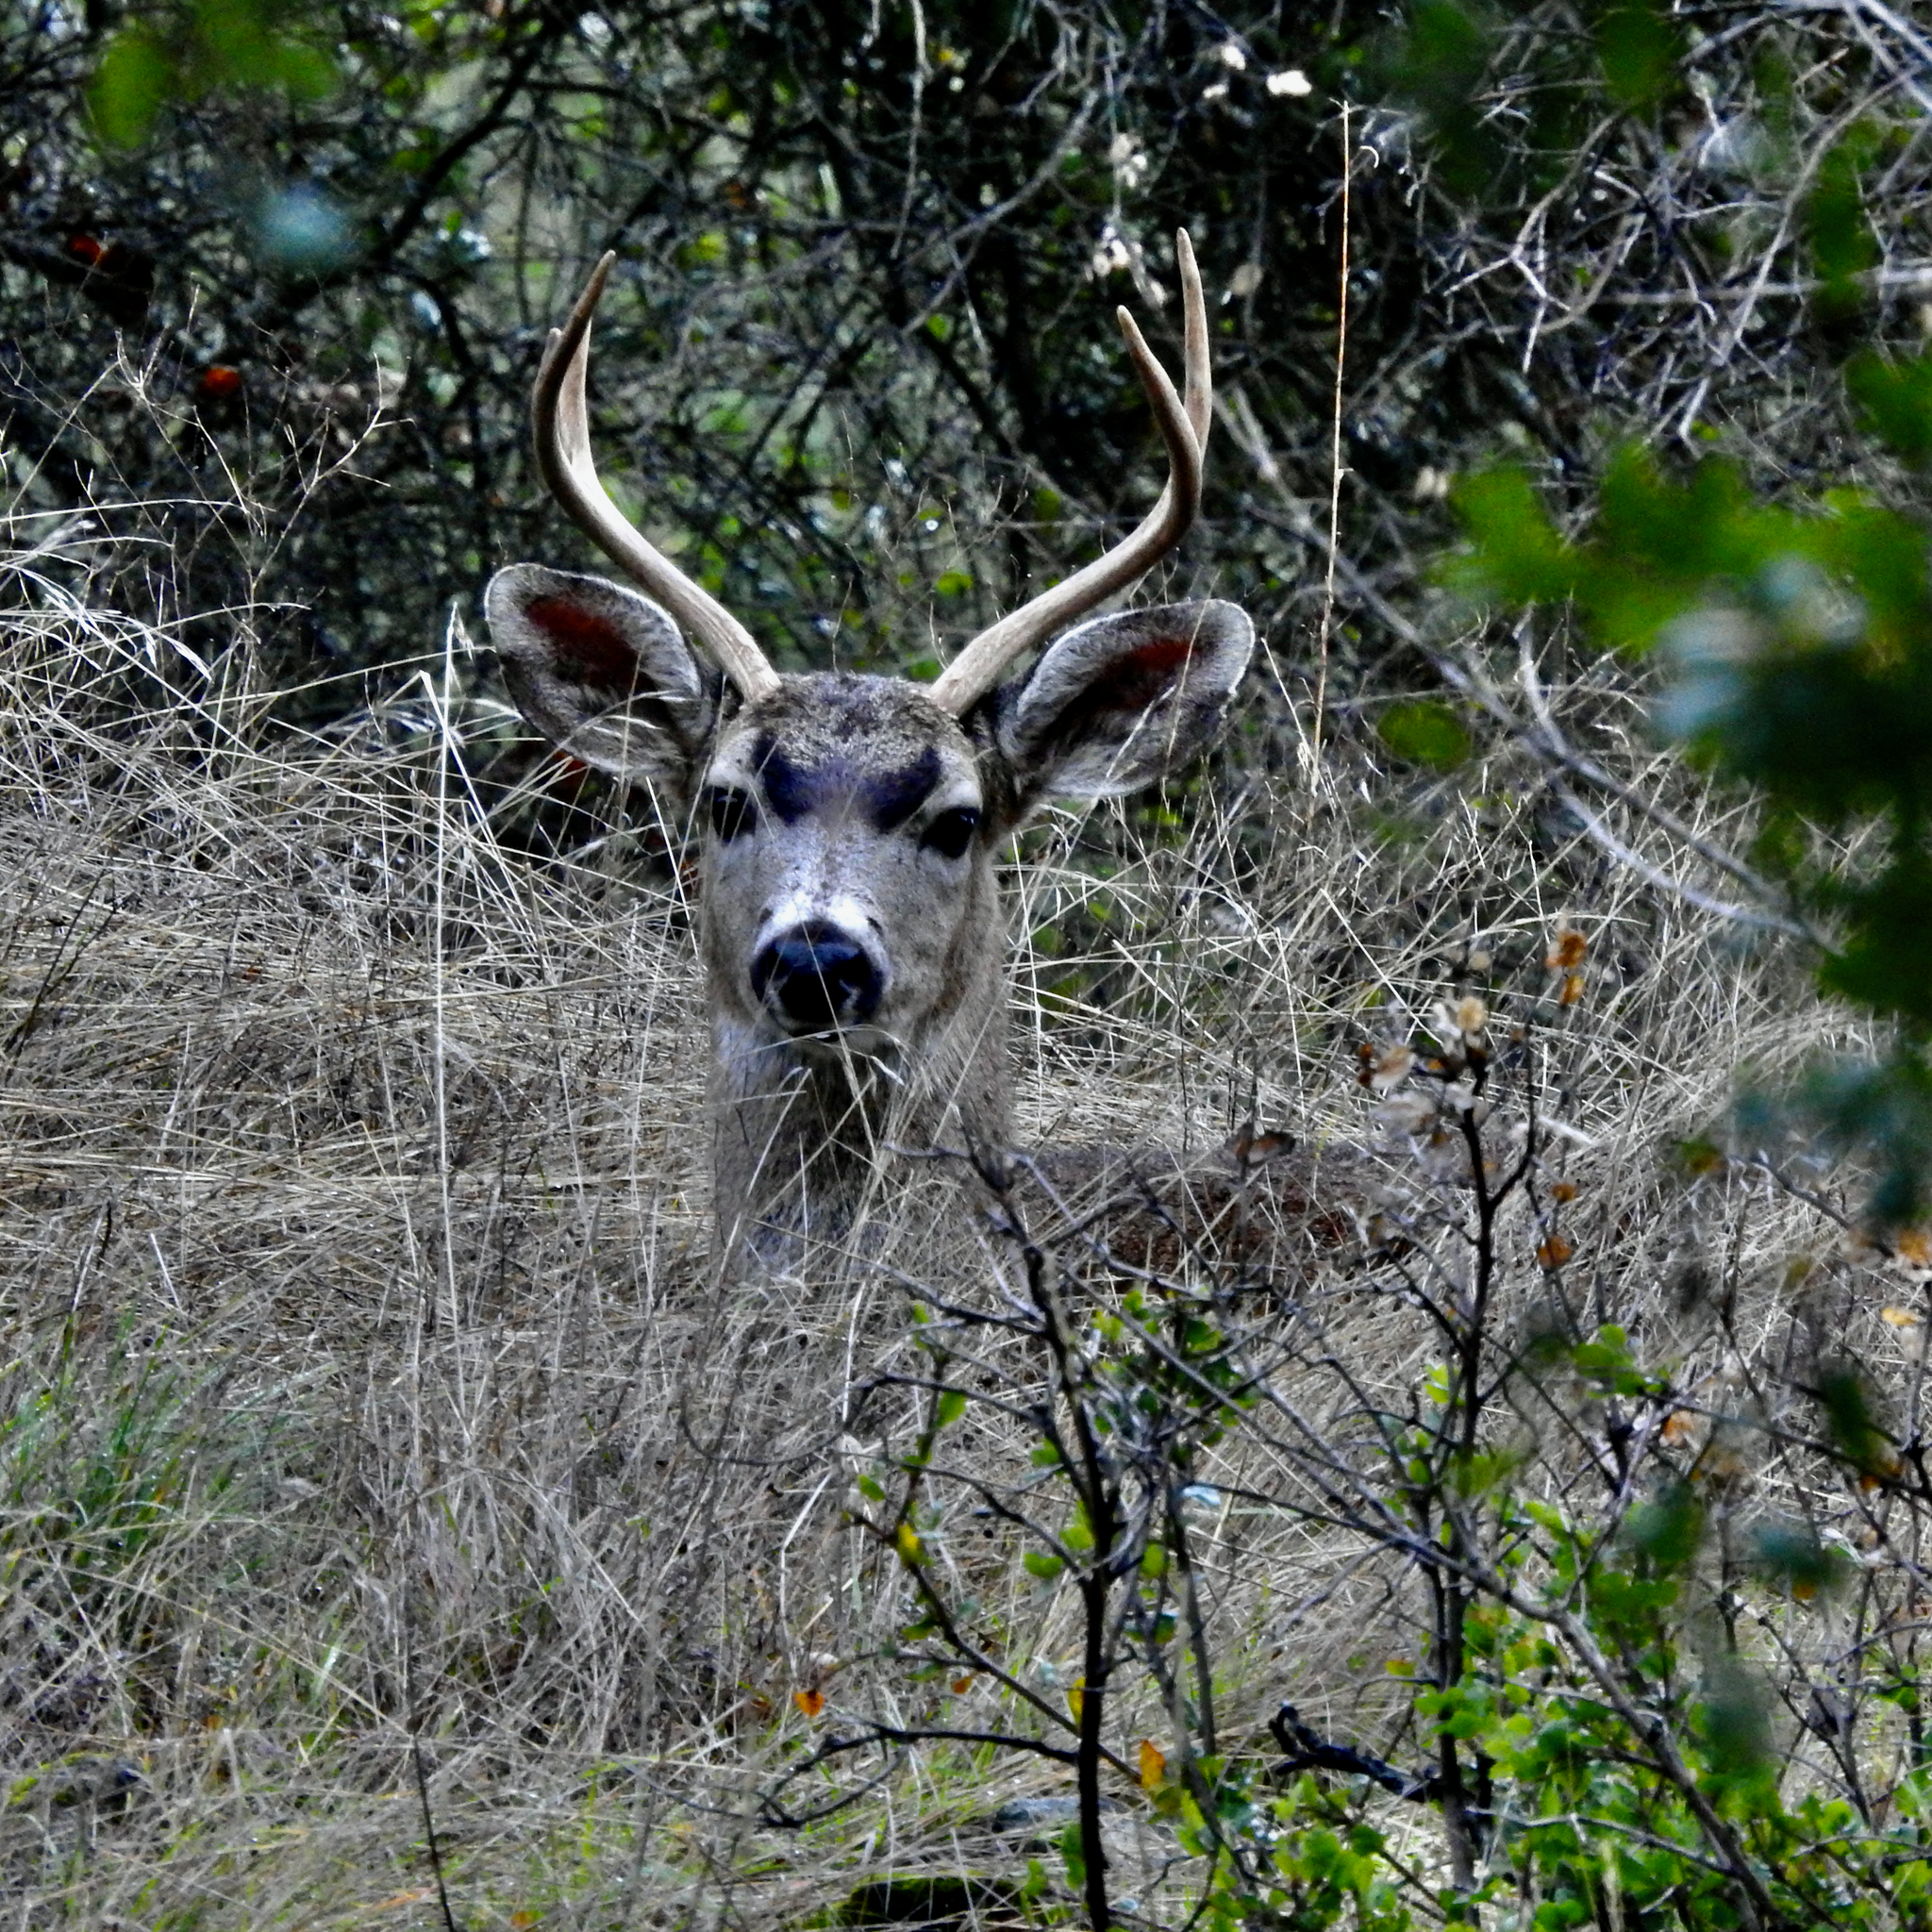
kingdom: Animalia
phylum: Chordata
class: Mammalia
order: Artiodactyla
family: Cervidae
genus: Odocoileus
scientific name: Odocoileus hemionus
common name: Mule deer
